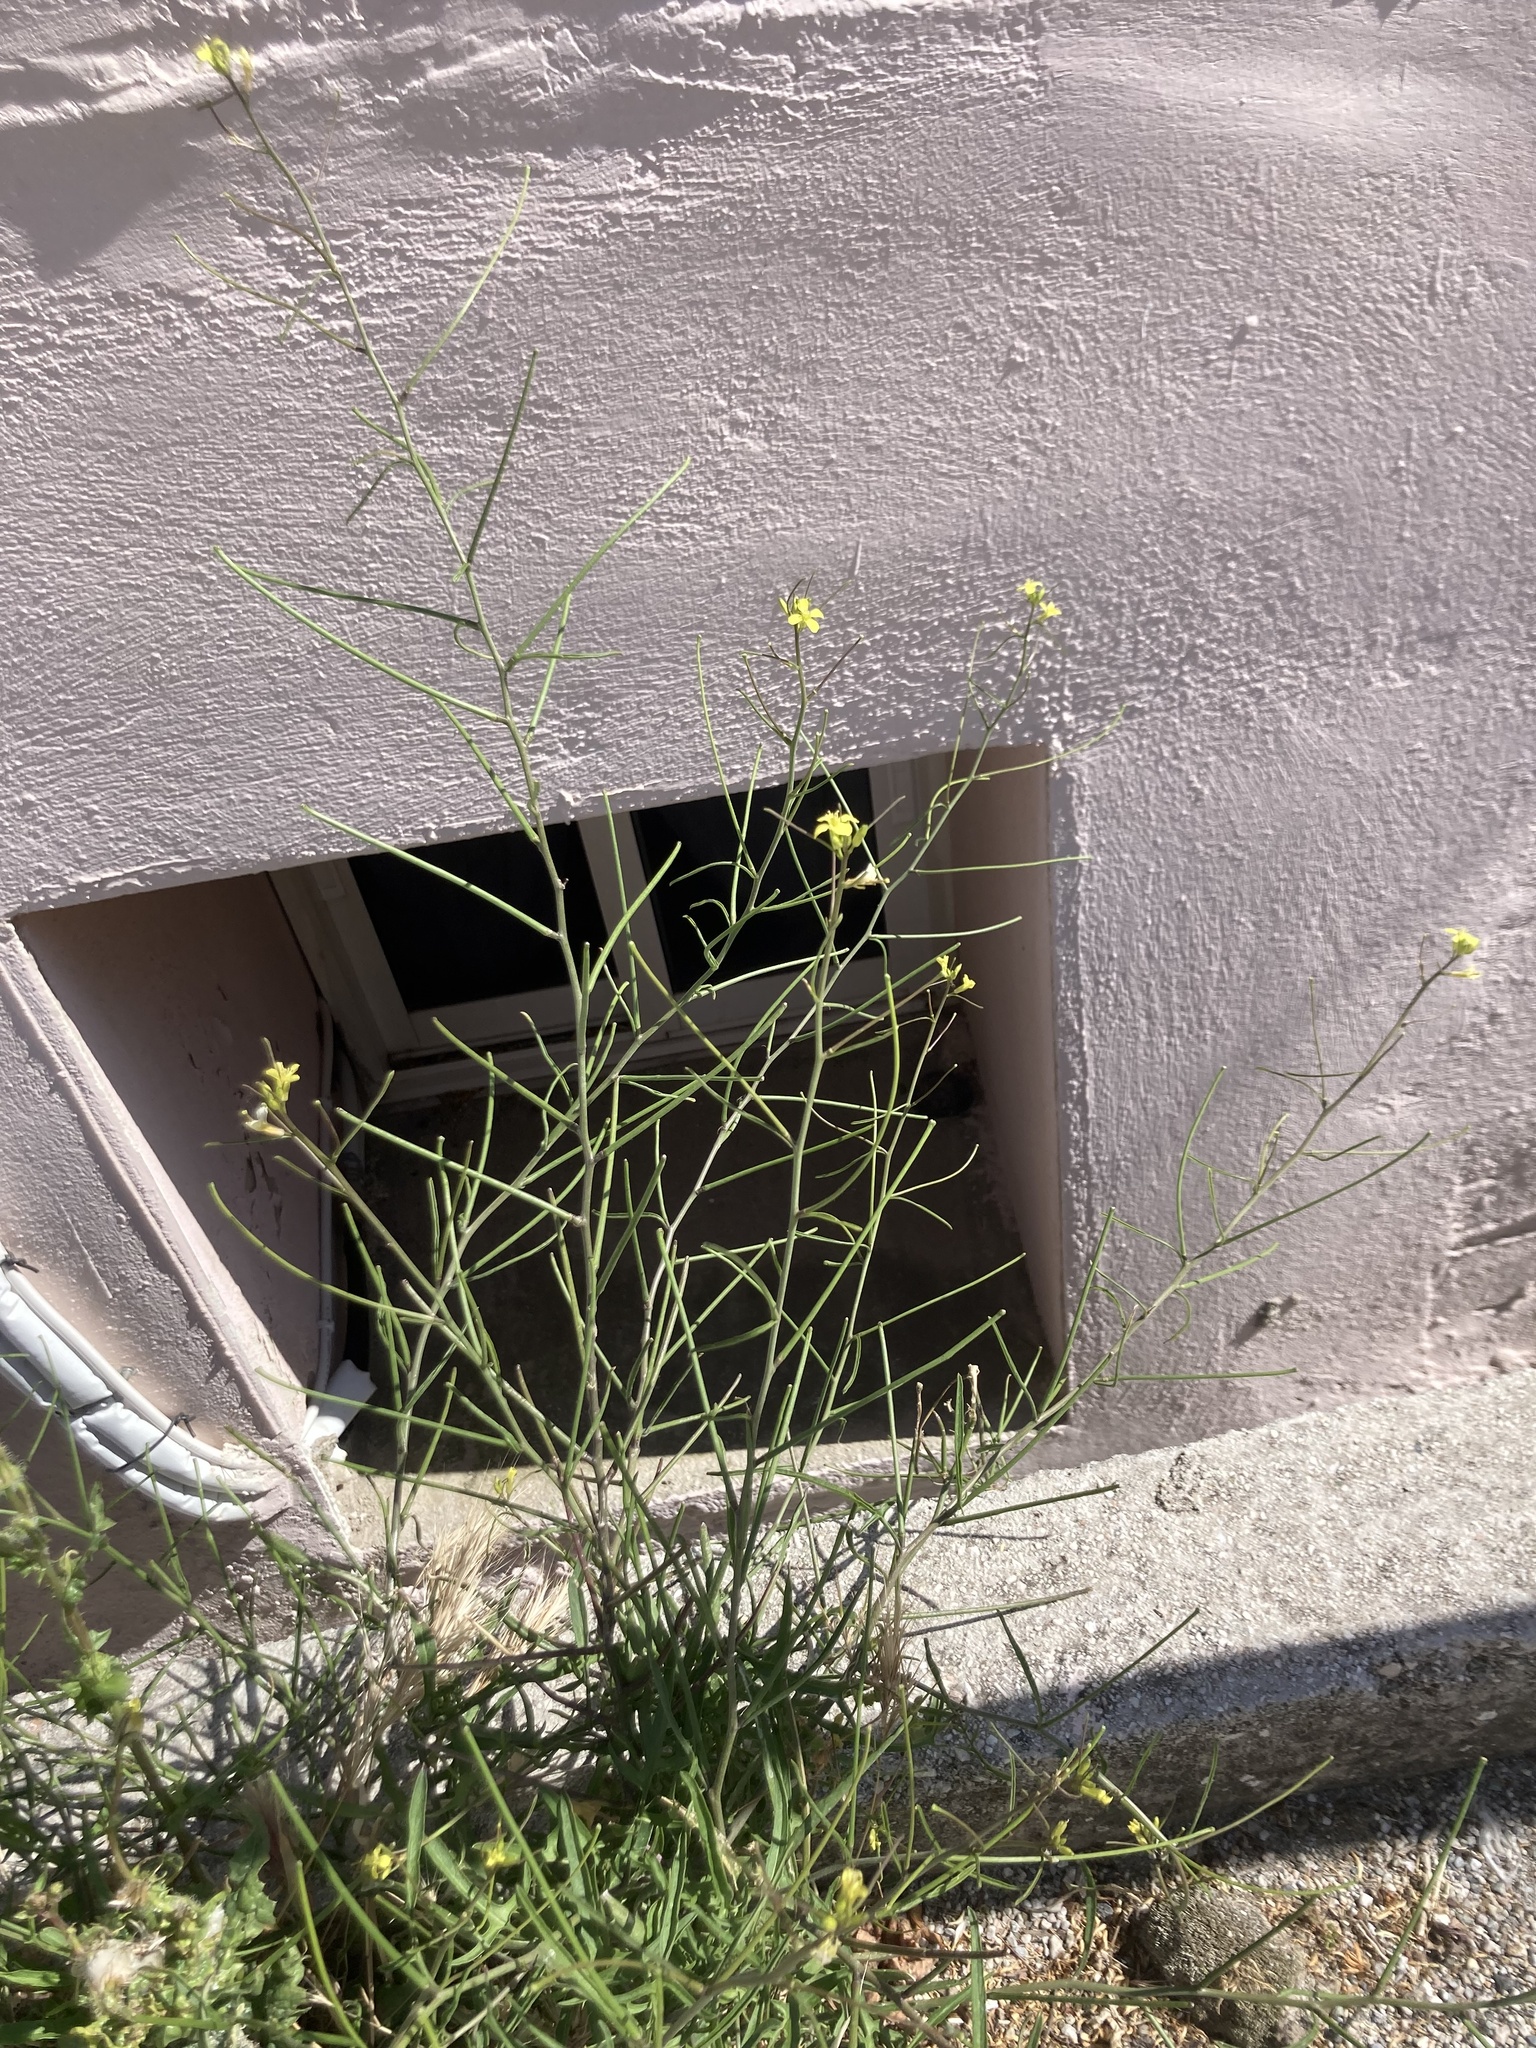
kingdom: Plantae
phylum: Tracheophyta
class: Magnoliopsida
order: Brassicales
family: Brassicaceae
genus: Sisymbrium
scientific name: Sisymbrium orientale
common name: Eastern rocket
